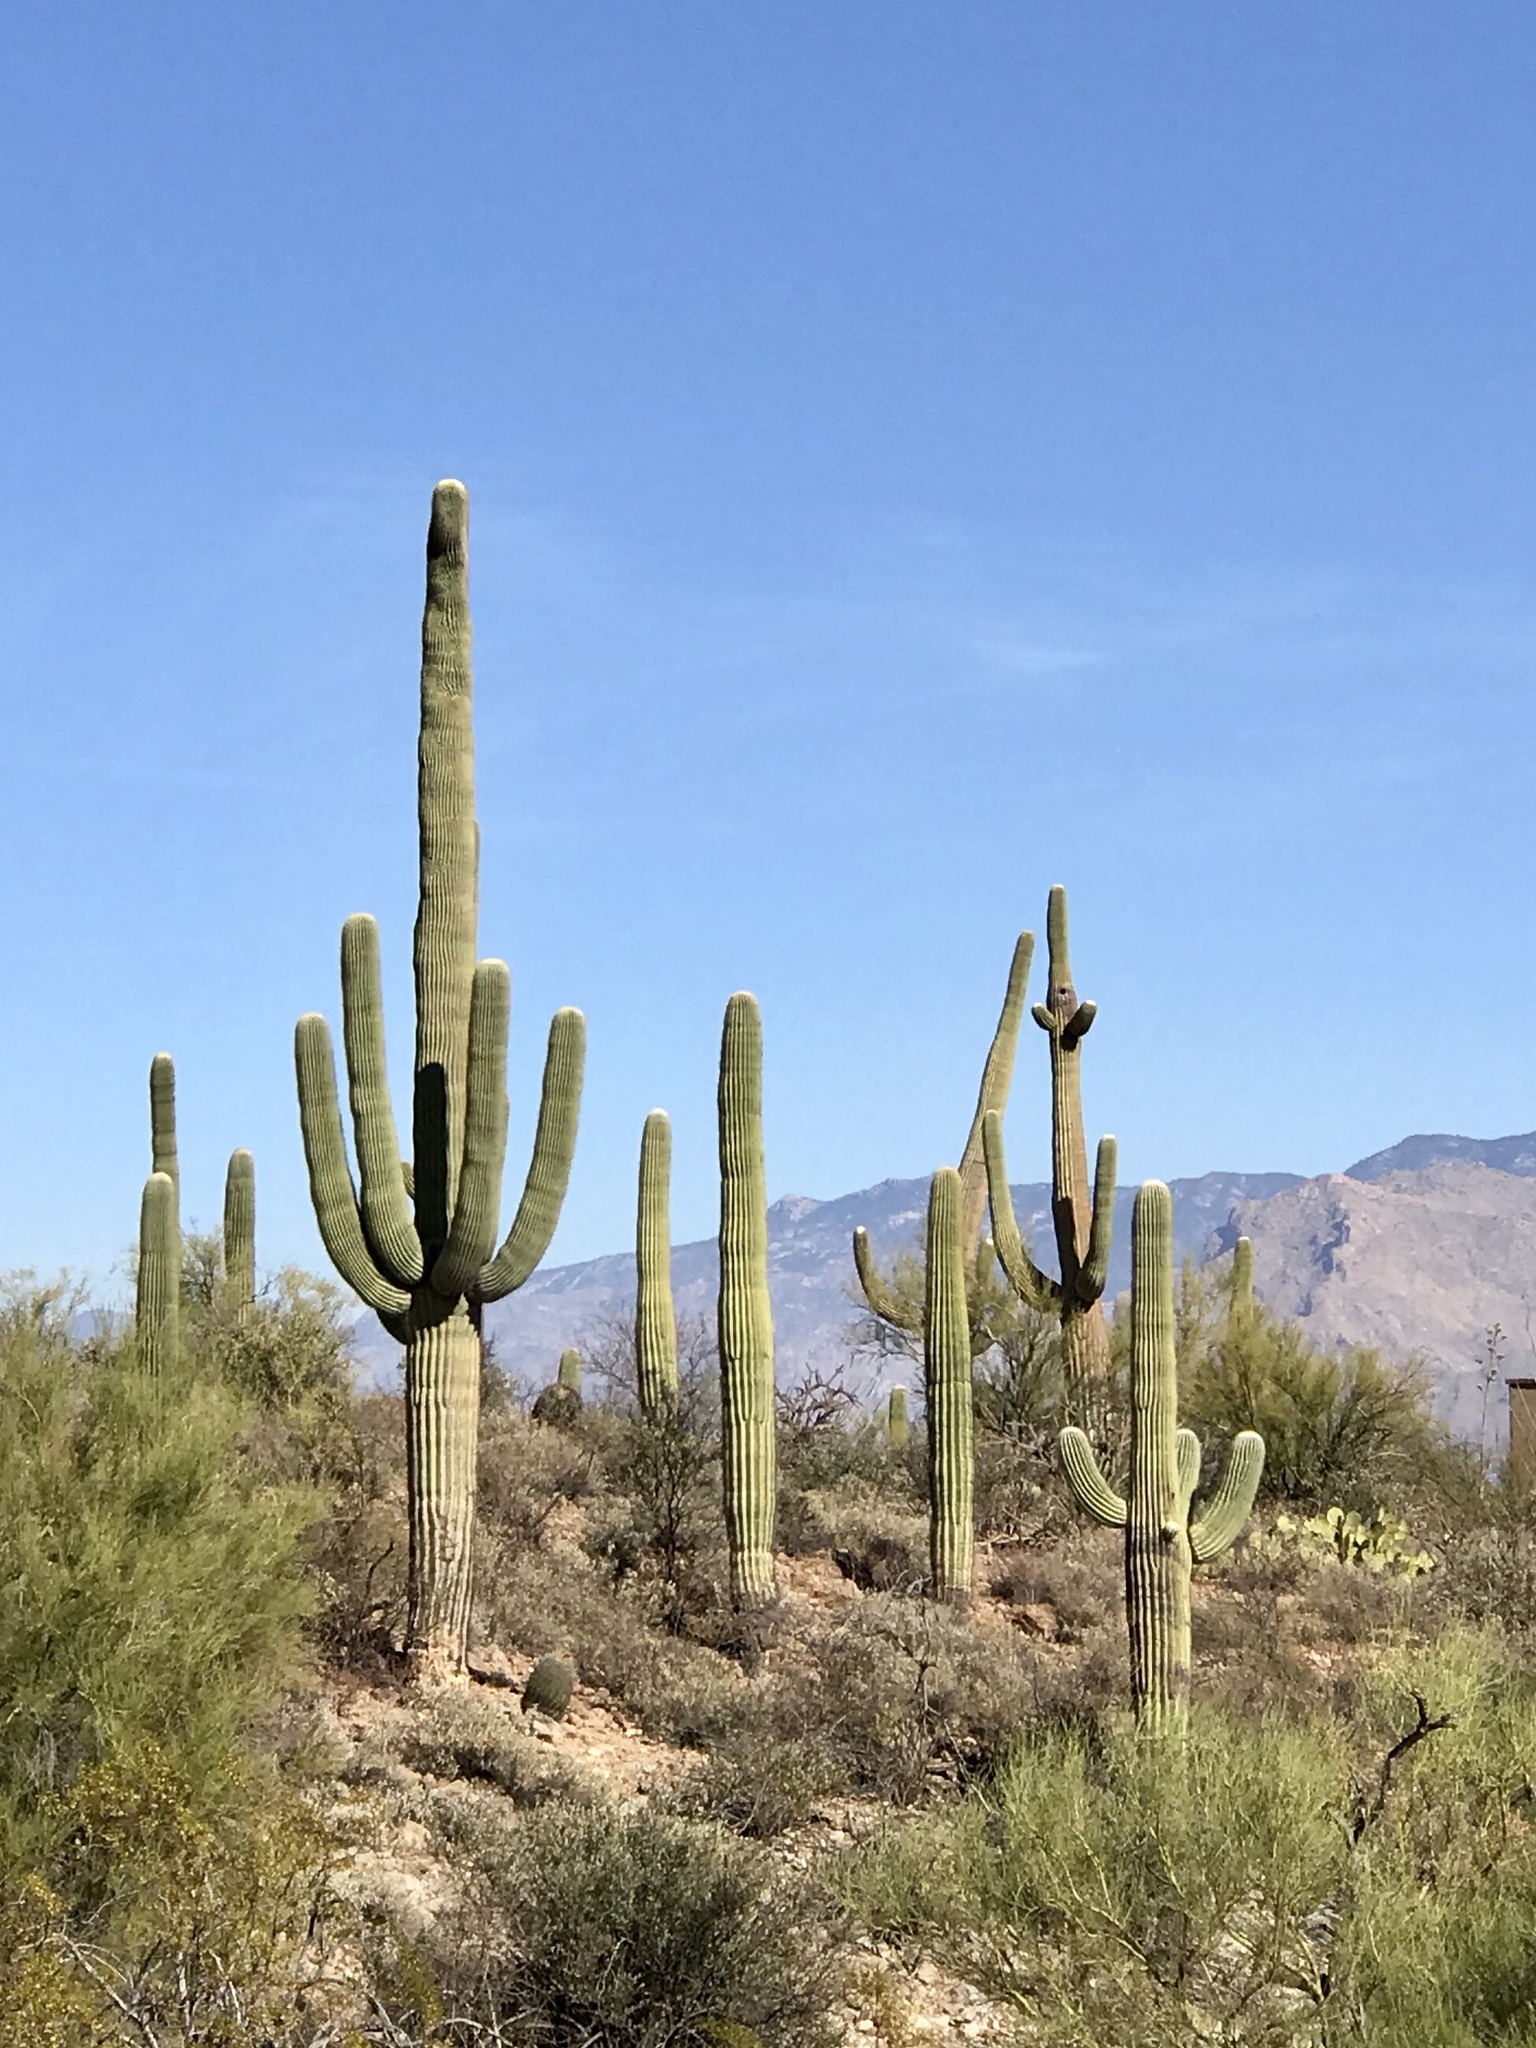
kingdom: Plantae
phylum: Tracheophyta
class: Magnoliopsida
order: Caryophyllales
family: Cactaceae
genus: Carnegiea
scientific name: Carnegiea gigantea
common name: Saguaro
